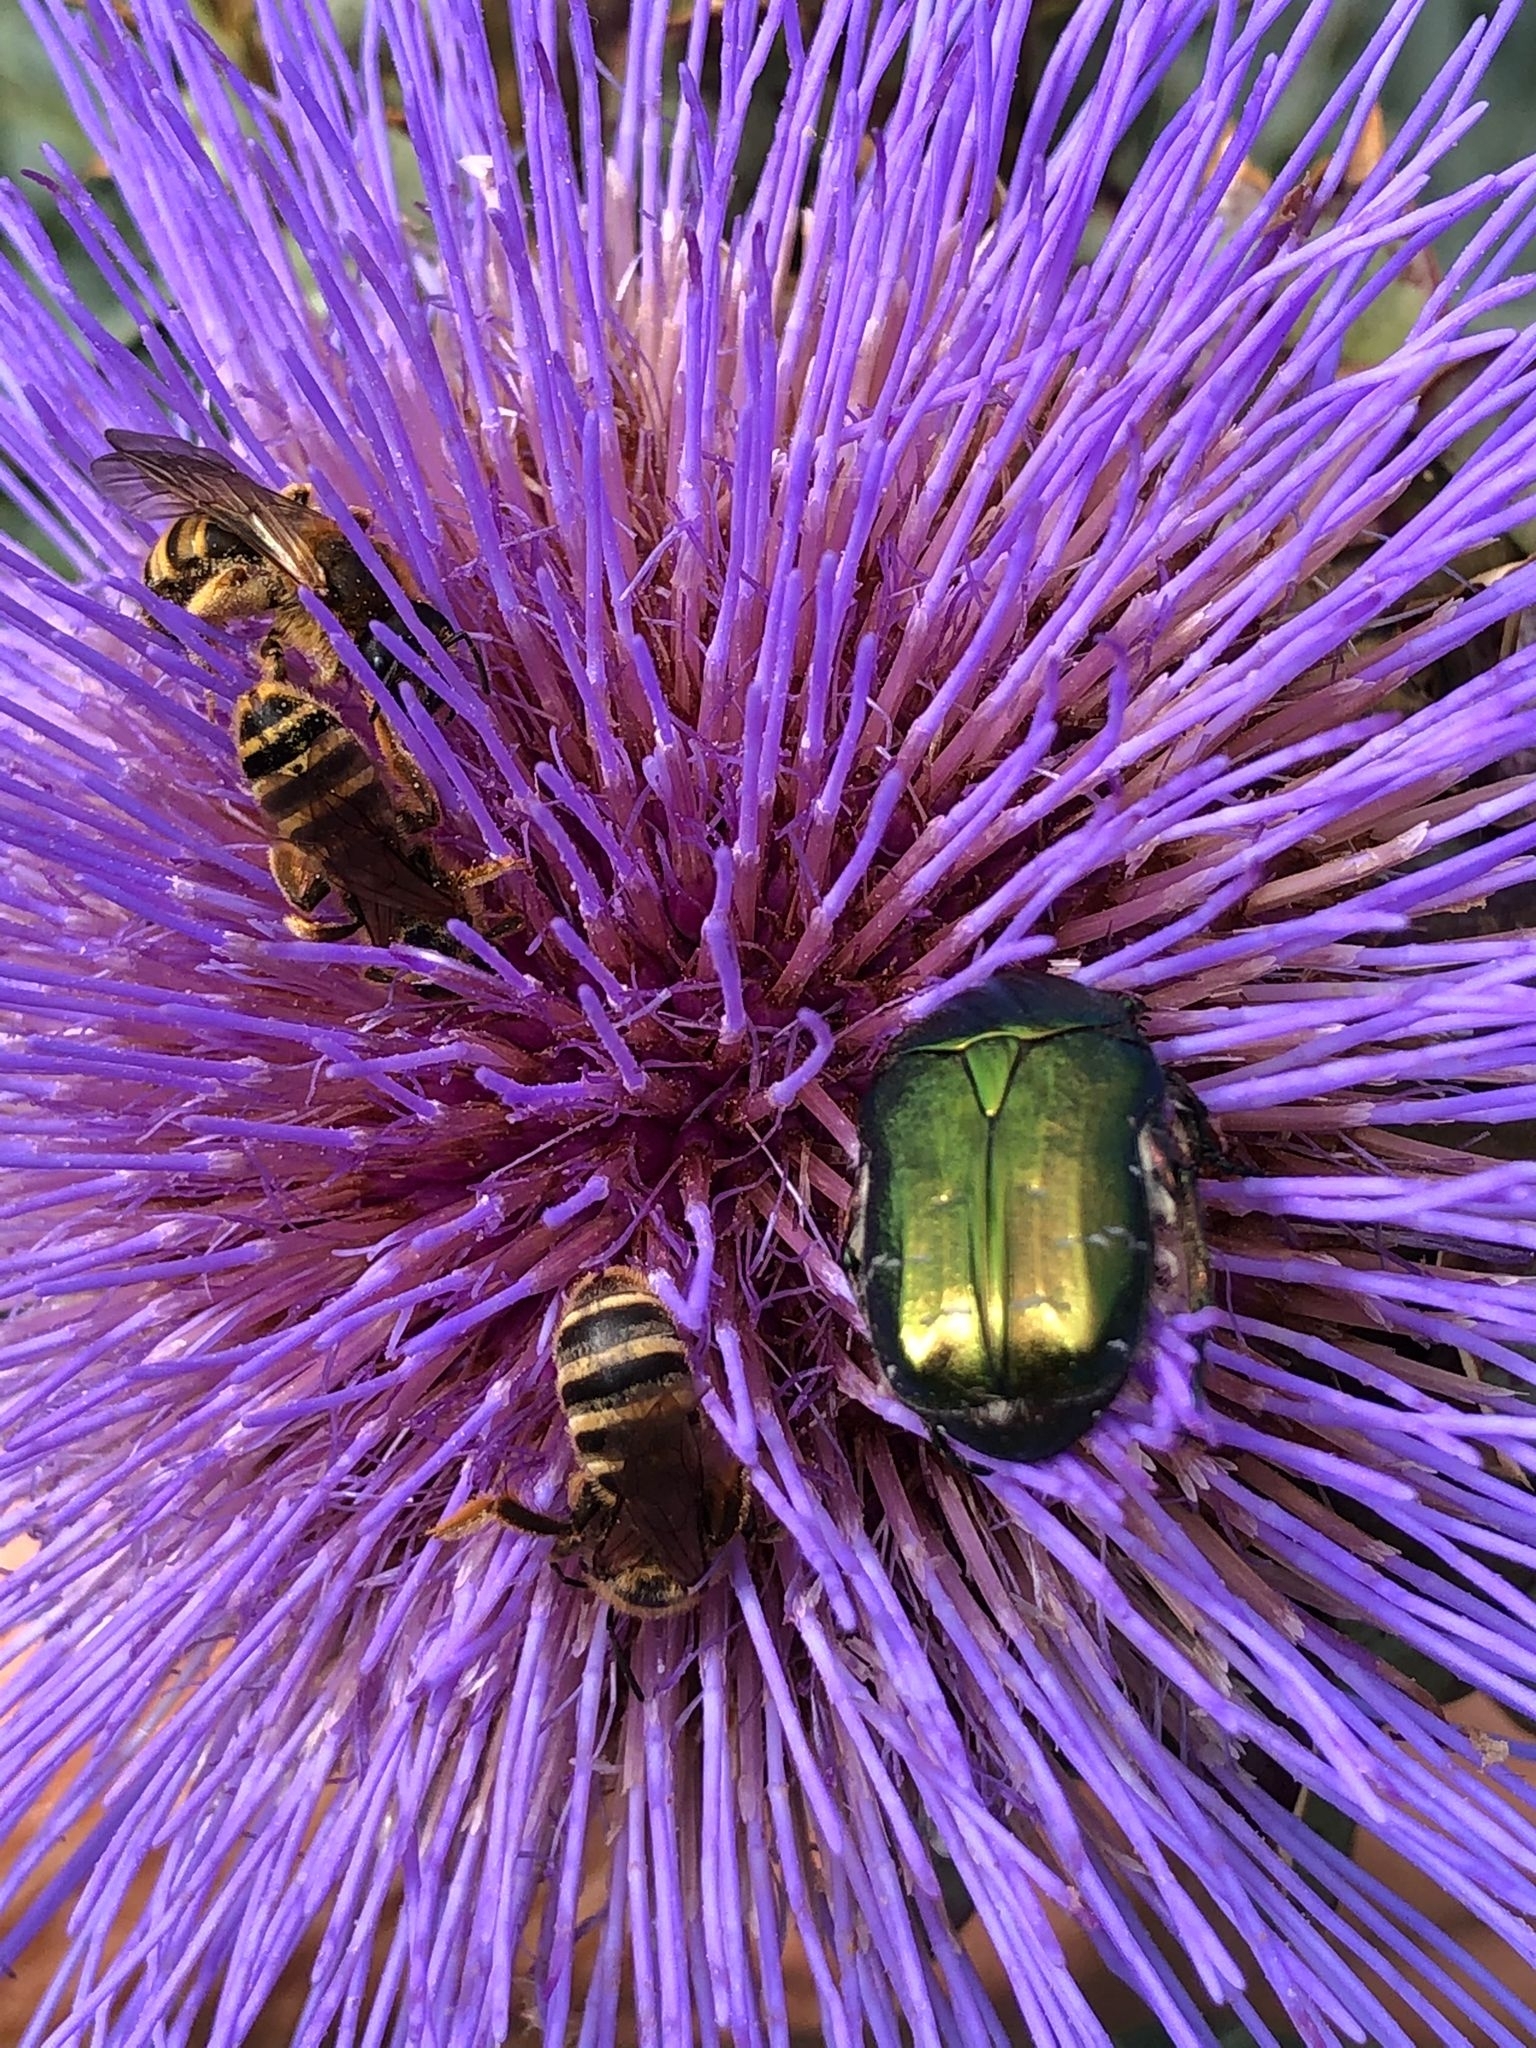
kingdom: Animalia
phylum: Arthropoda
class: Insecta
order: Coleoptera
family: Scarabaeidae
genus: Cetonia
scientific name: Cetonia aurata
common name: Rose chafer
